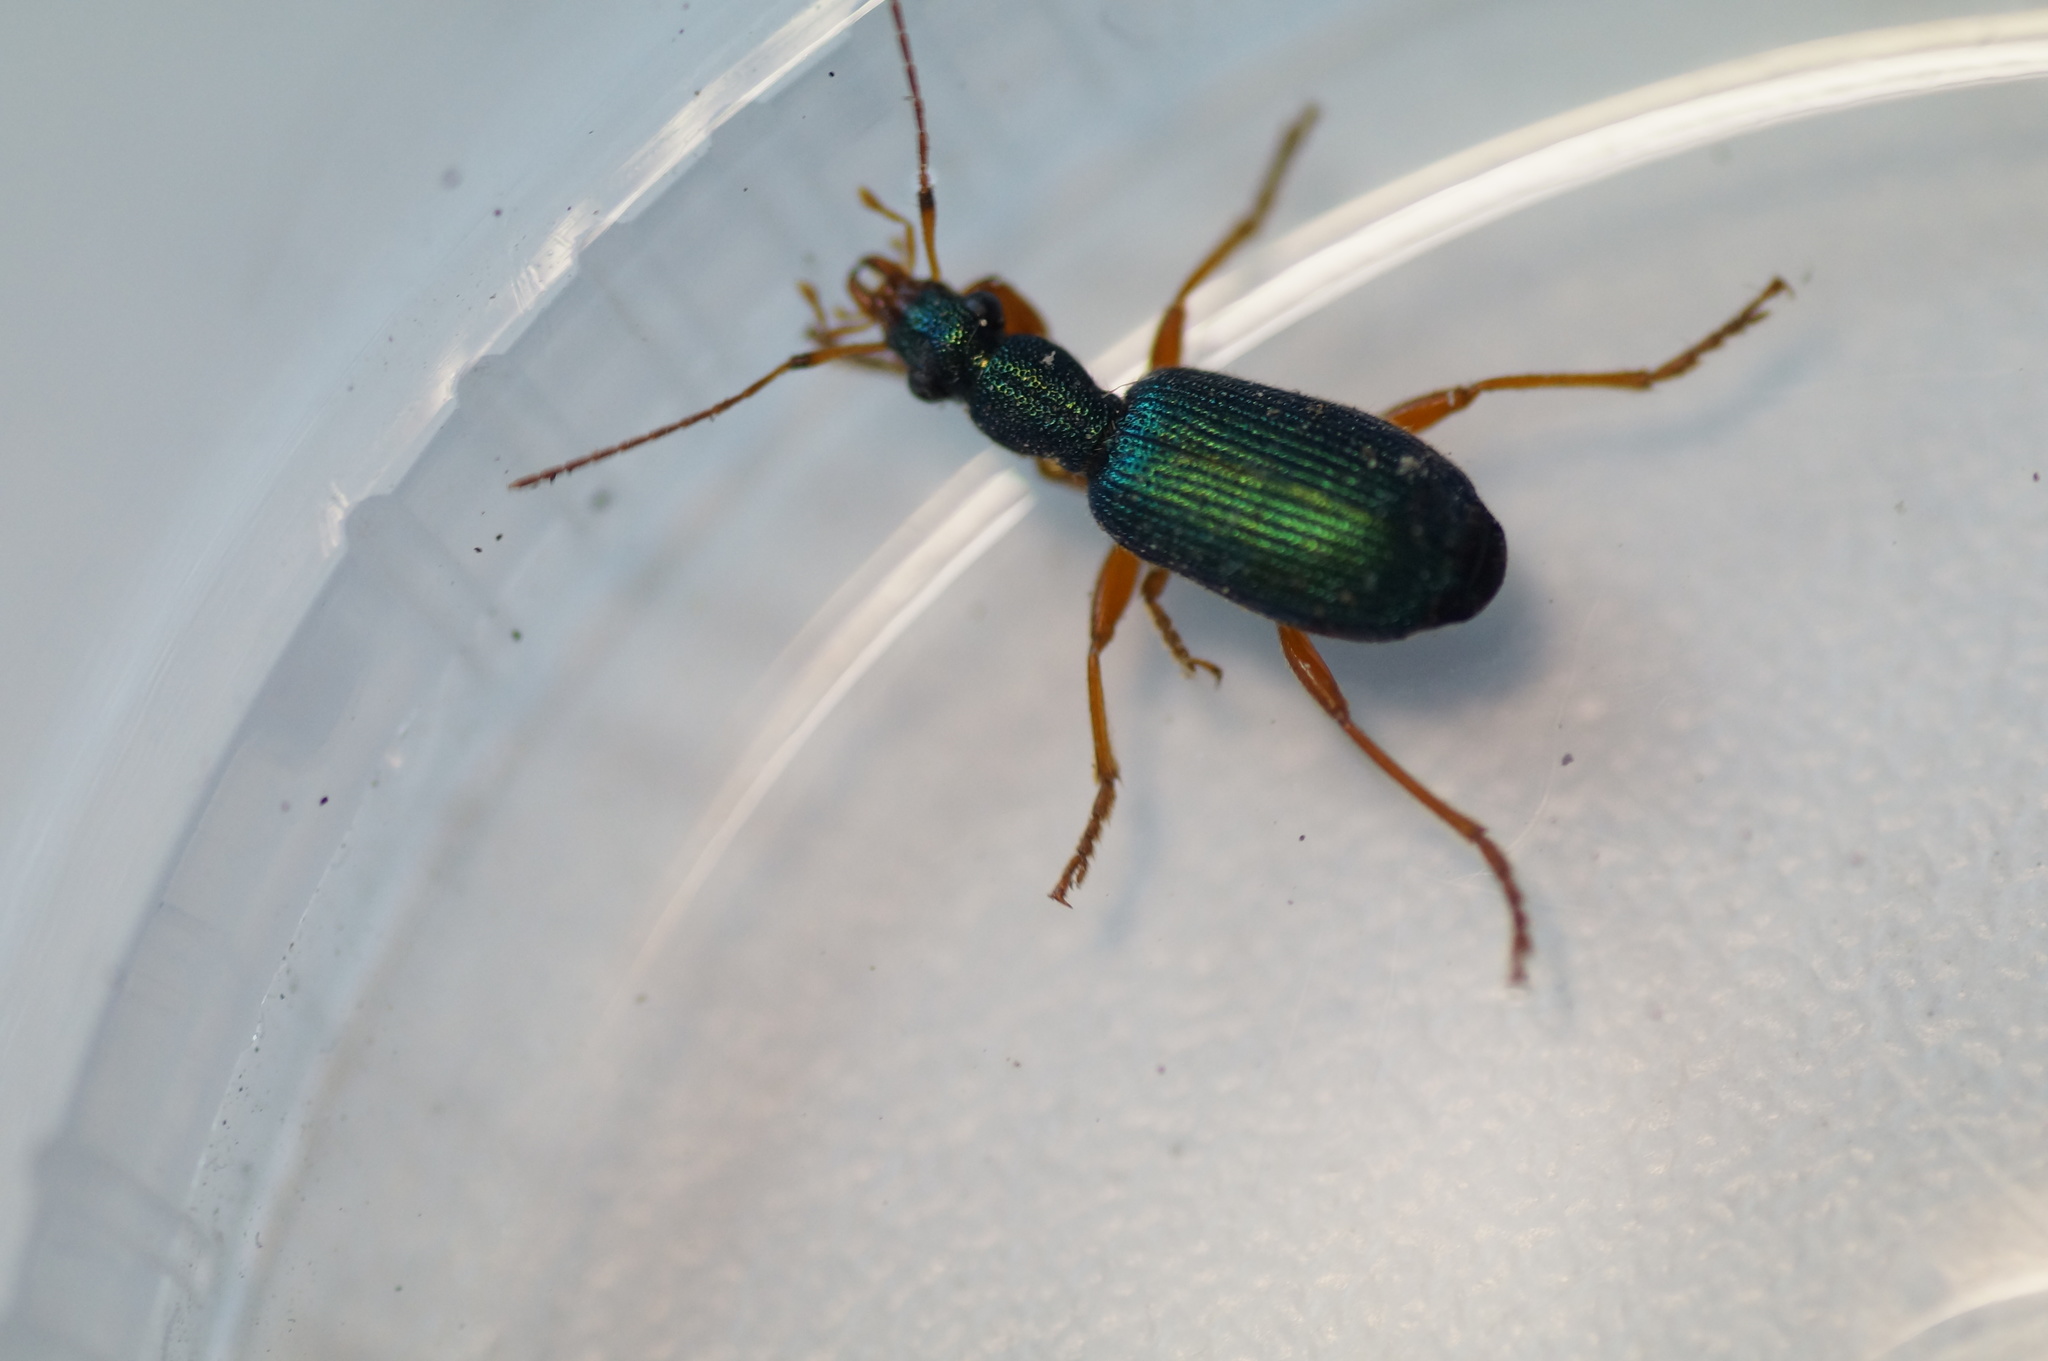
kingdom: Animalia
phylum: Arthropoda
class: Insecta
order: Coleoptera
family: Carabidae
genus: Drypta
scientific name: Drypta dentata
